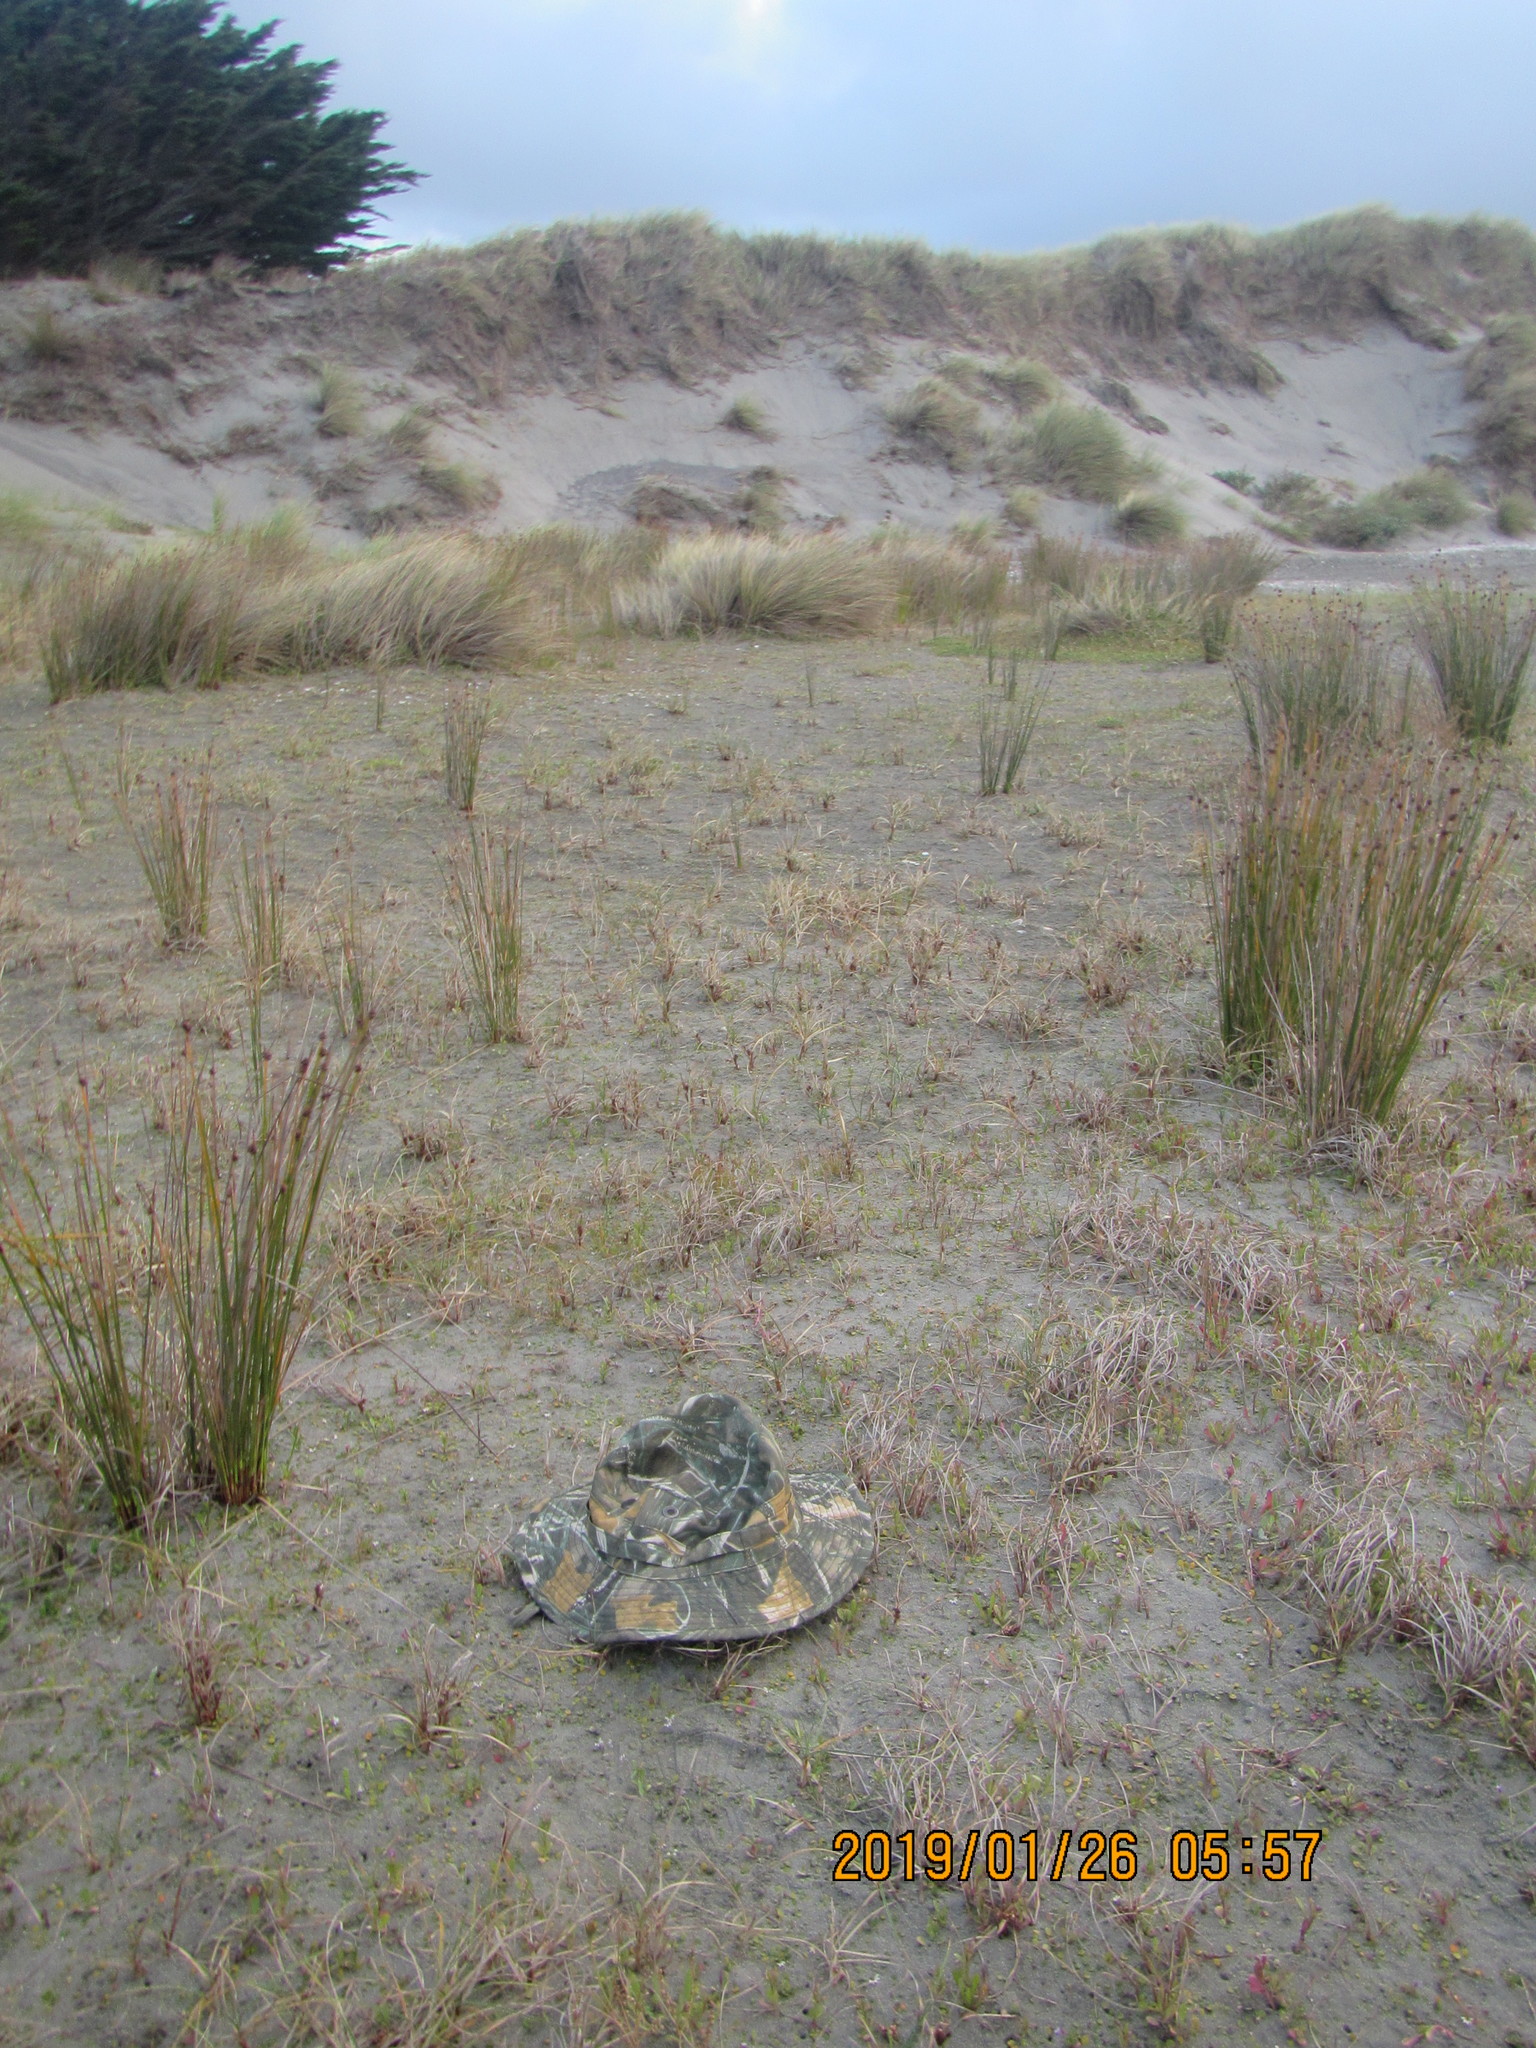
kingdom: Plantae
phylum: Tracheophyta
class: Magnoliopsida
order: Asterales
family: Goodeniaceae
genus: Goodenia
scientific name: Goodenia heenanii
